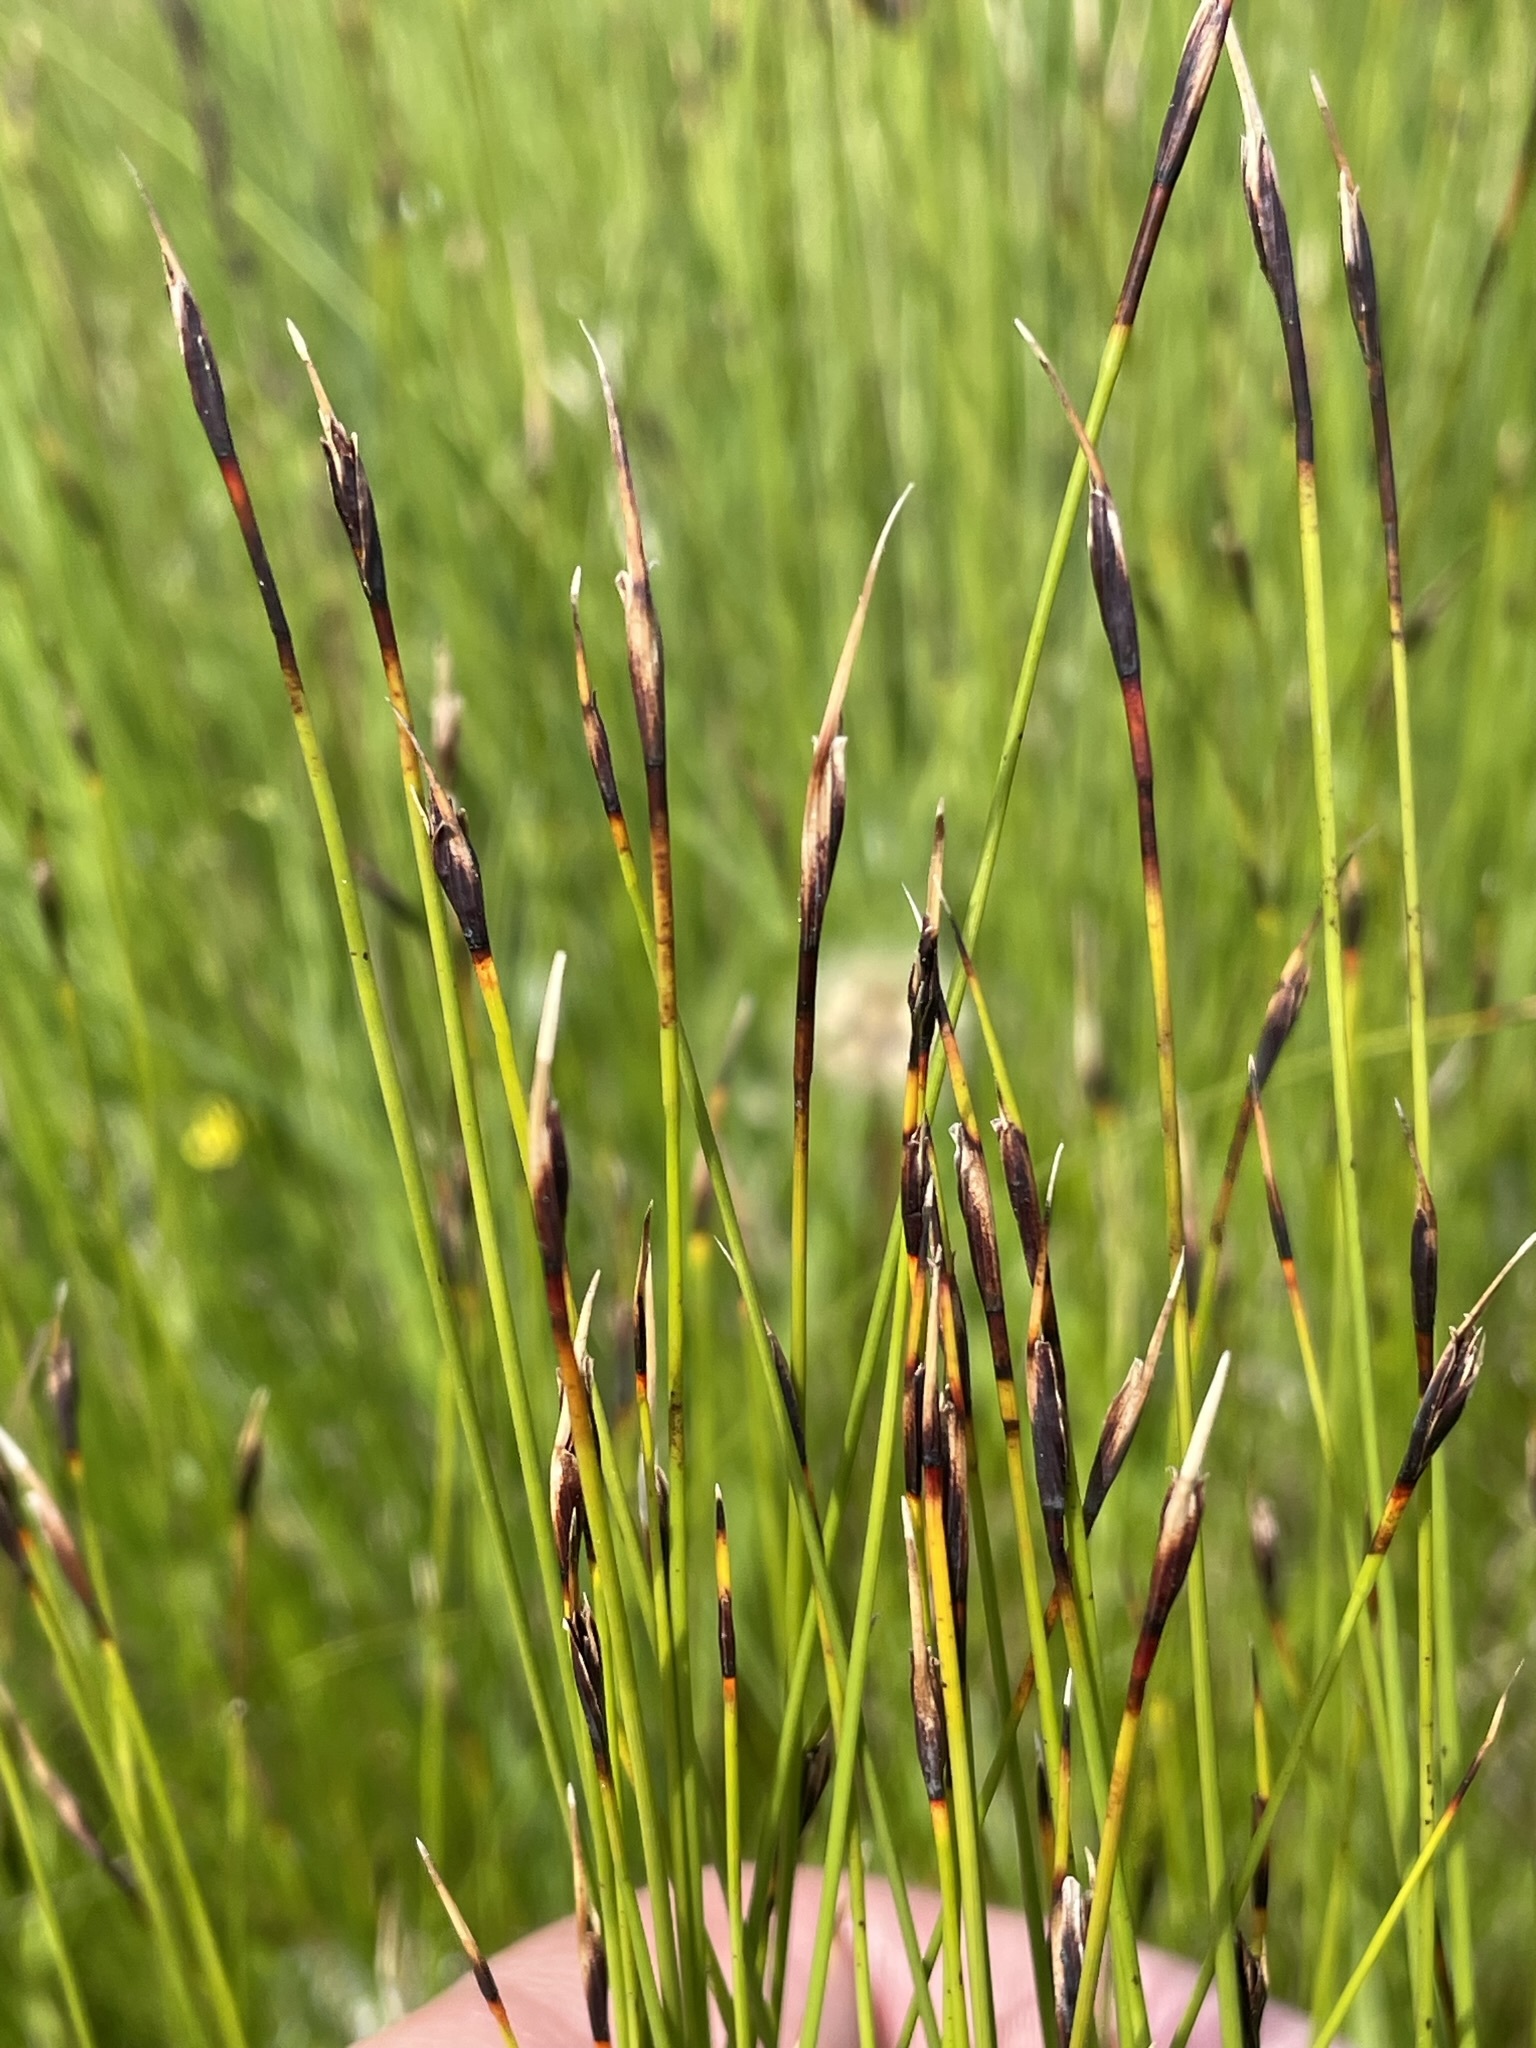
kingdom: Plantae
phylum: Tracheophyta
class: Liliopsida
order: Poales
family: Cyperaceae
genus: Schoenus
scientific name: Schoenus ferrugineus
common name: Brown bog-rush
